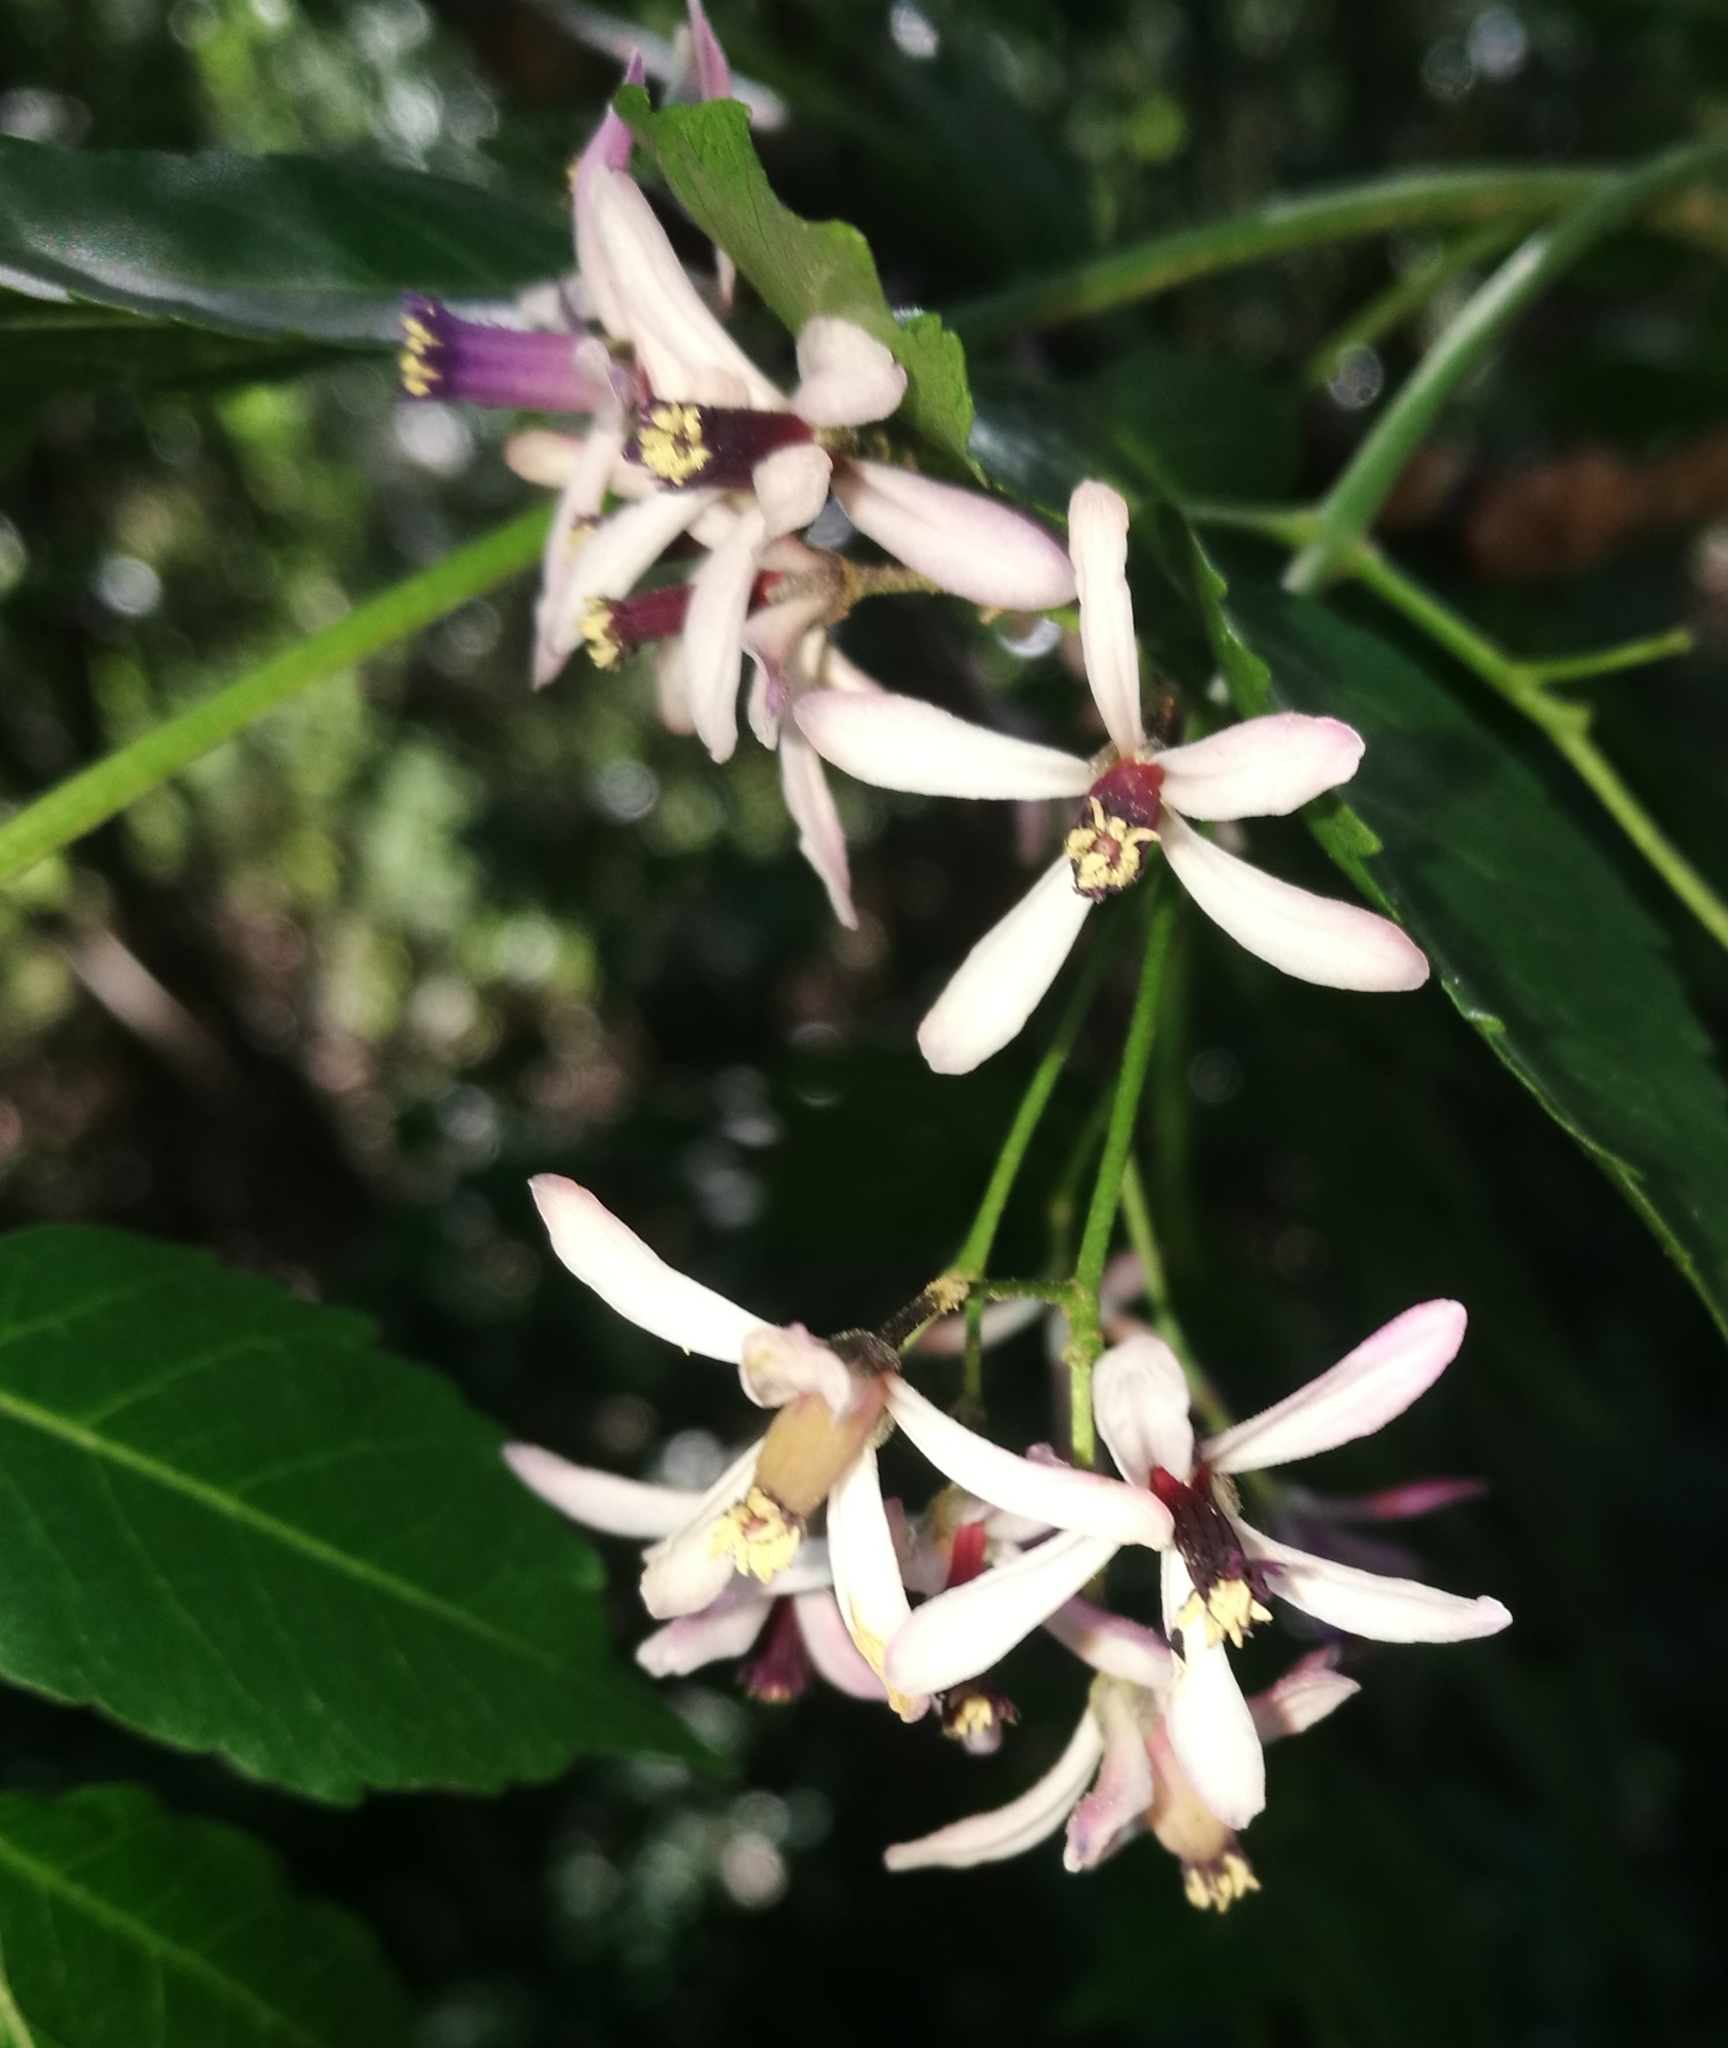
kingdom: Plantae
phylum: Tracheophyta
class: Magnoliopsida
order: Sapindales
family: Meliaceae
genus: Melia
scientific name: Melia azedarach
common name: Chinaberrytree
